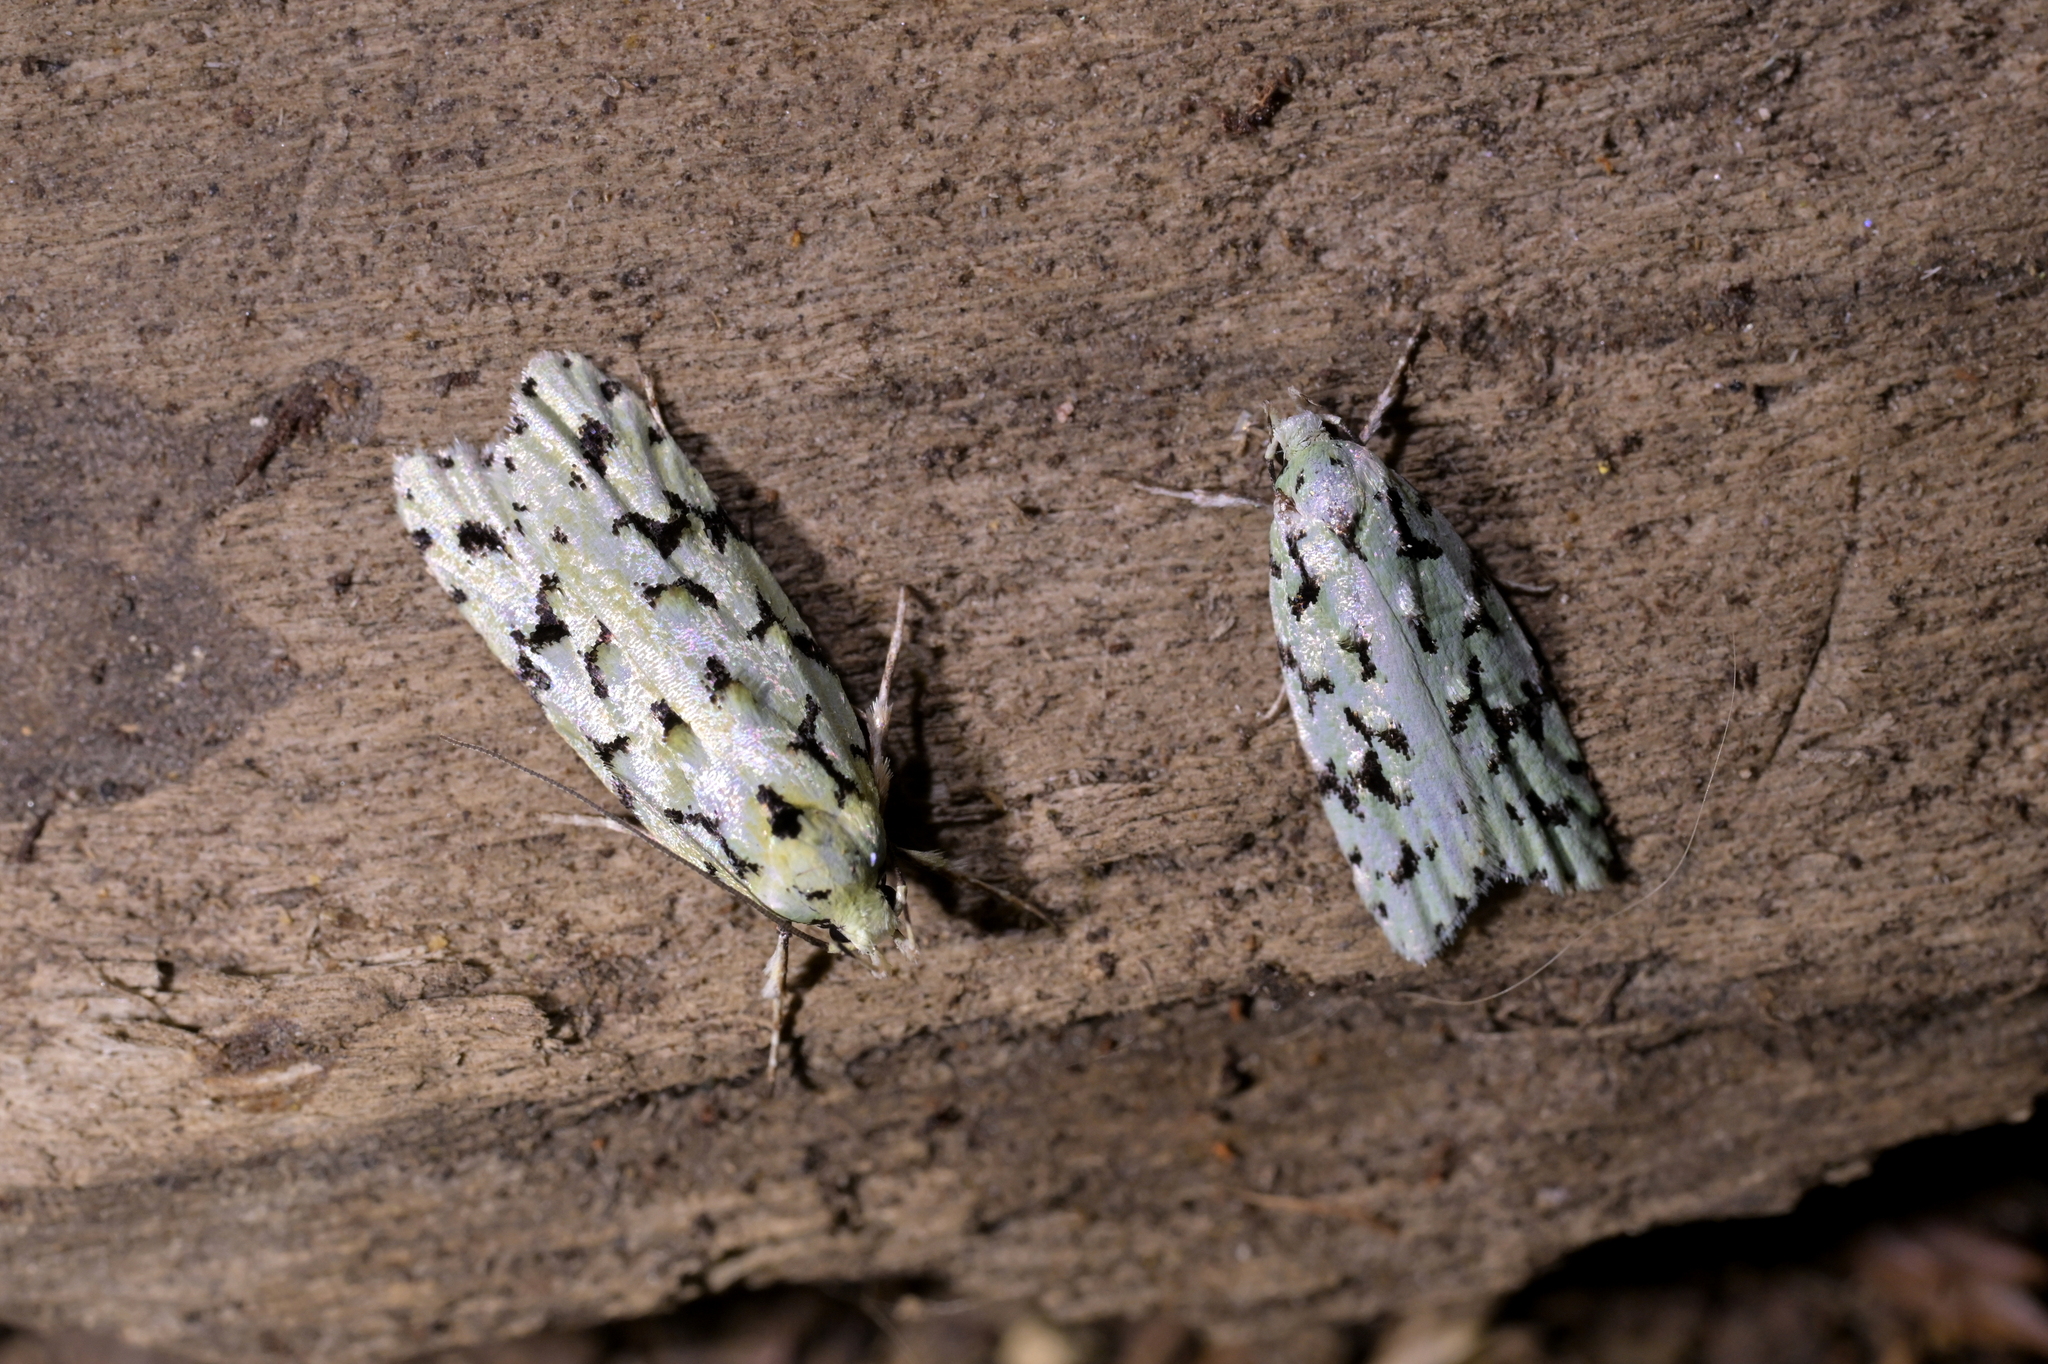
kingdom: Animalia
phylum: Arthropoda
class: Insecta
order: Lepidoptera
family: Oecophoridae
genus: Izatha
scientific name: Izatha huttoni
